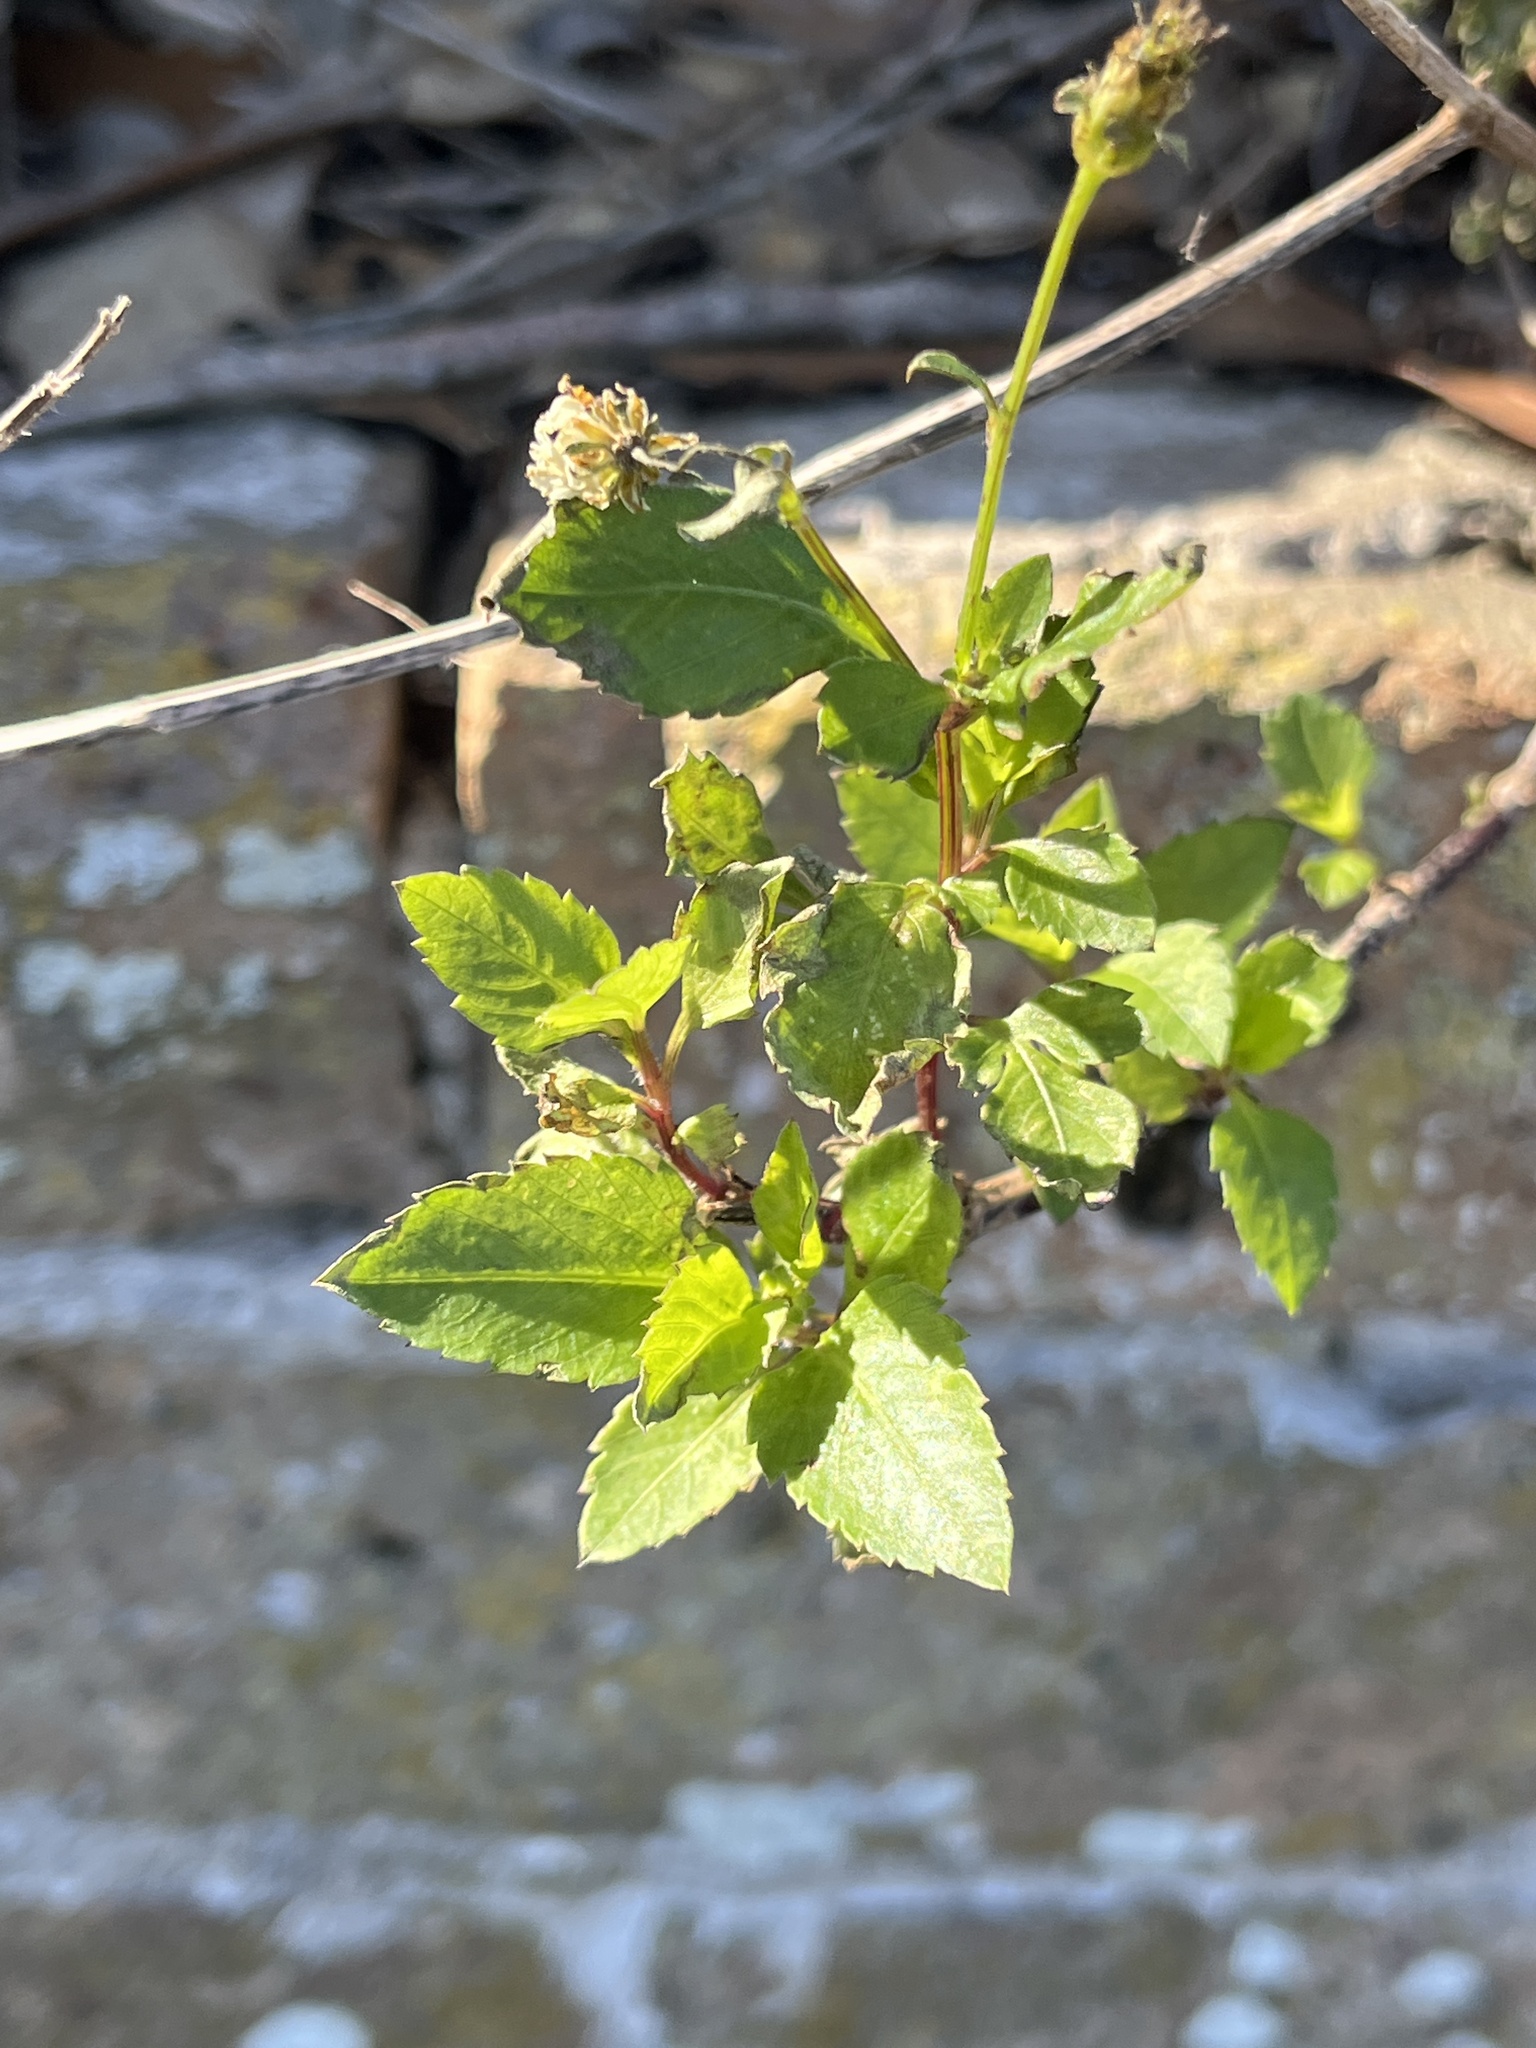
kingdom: Plantae
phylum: Tracheophyta
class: Magnoliopsida
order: Asterales
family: Asteraceae
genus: Bidens
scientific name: Bidens alba
